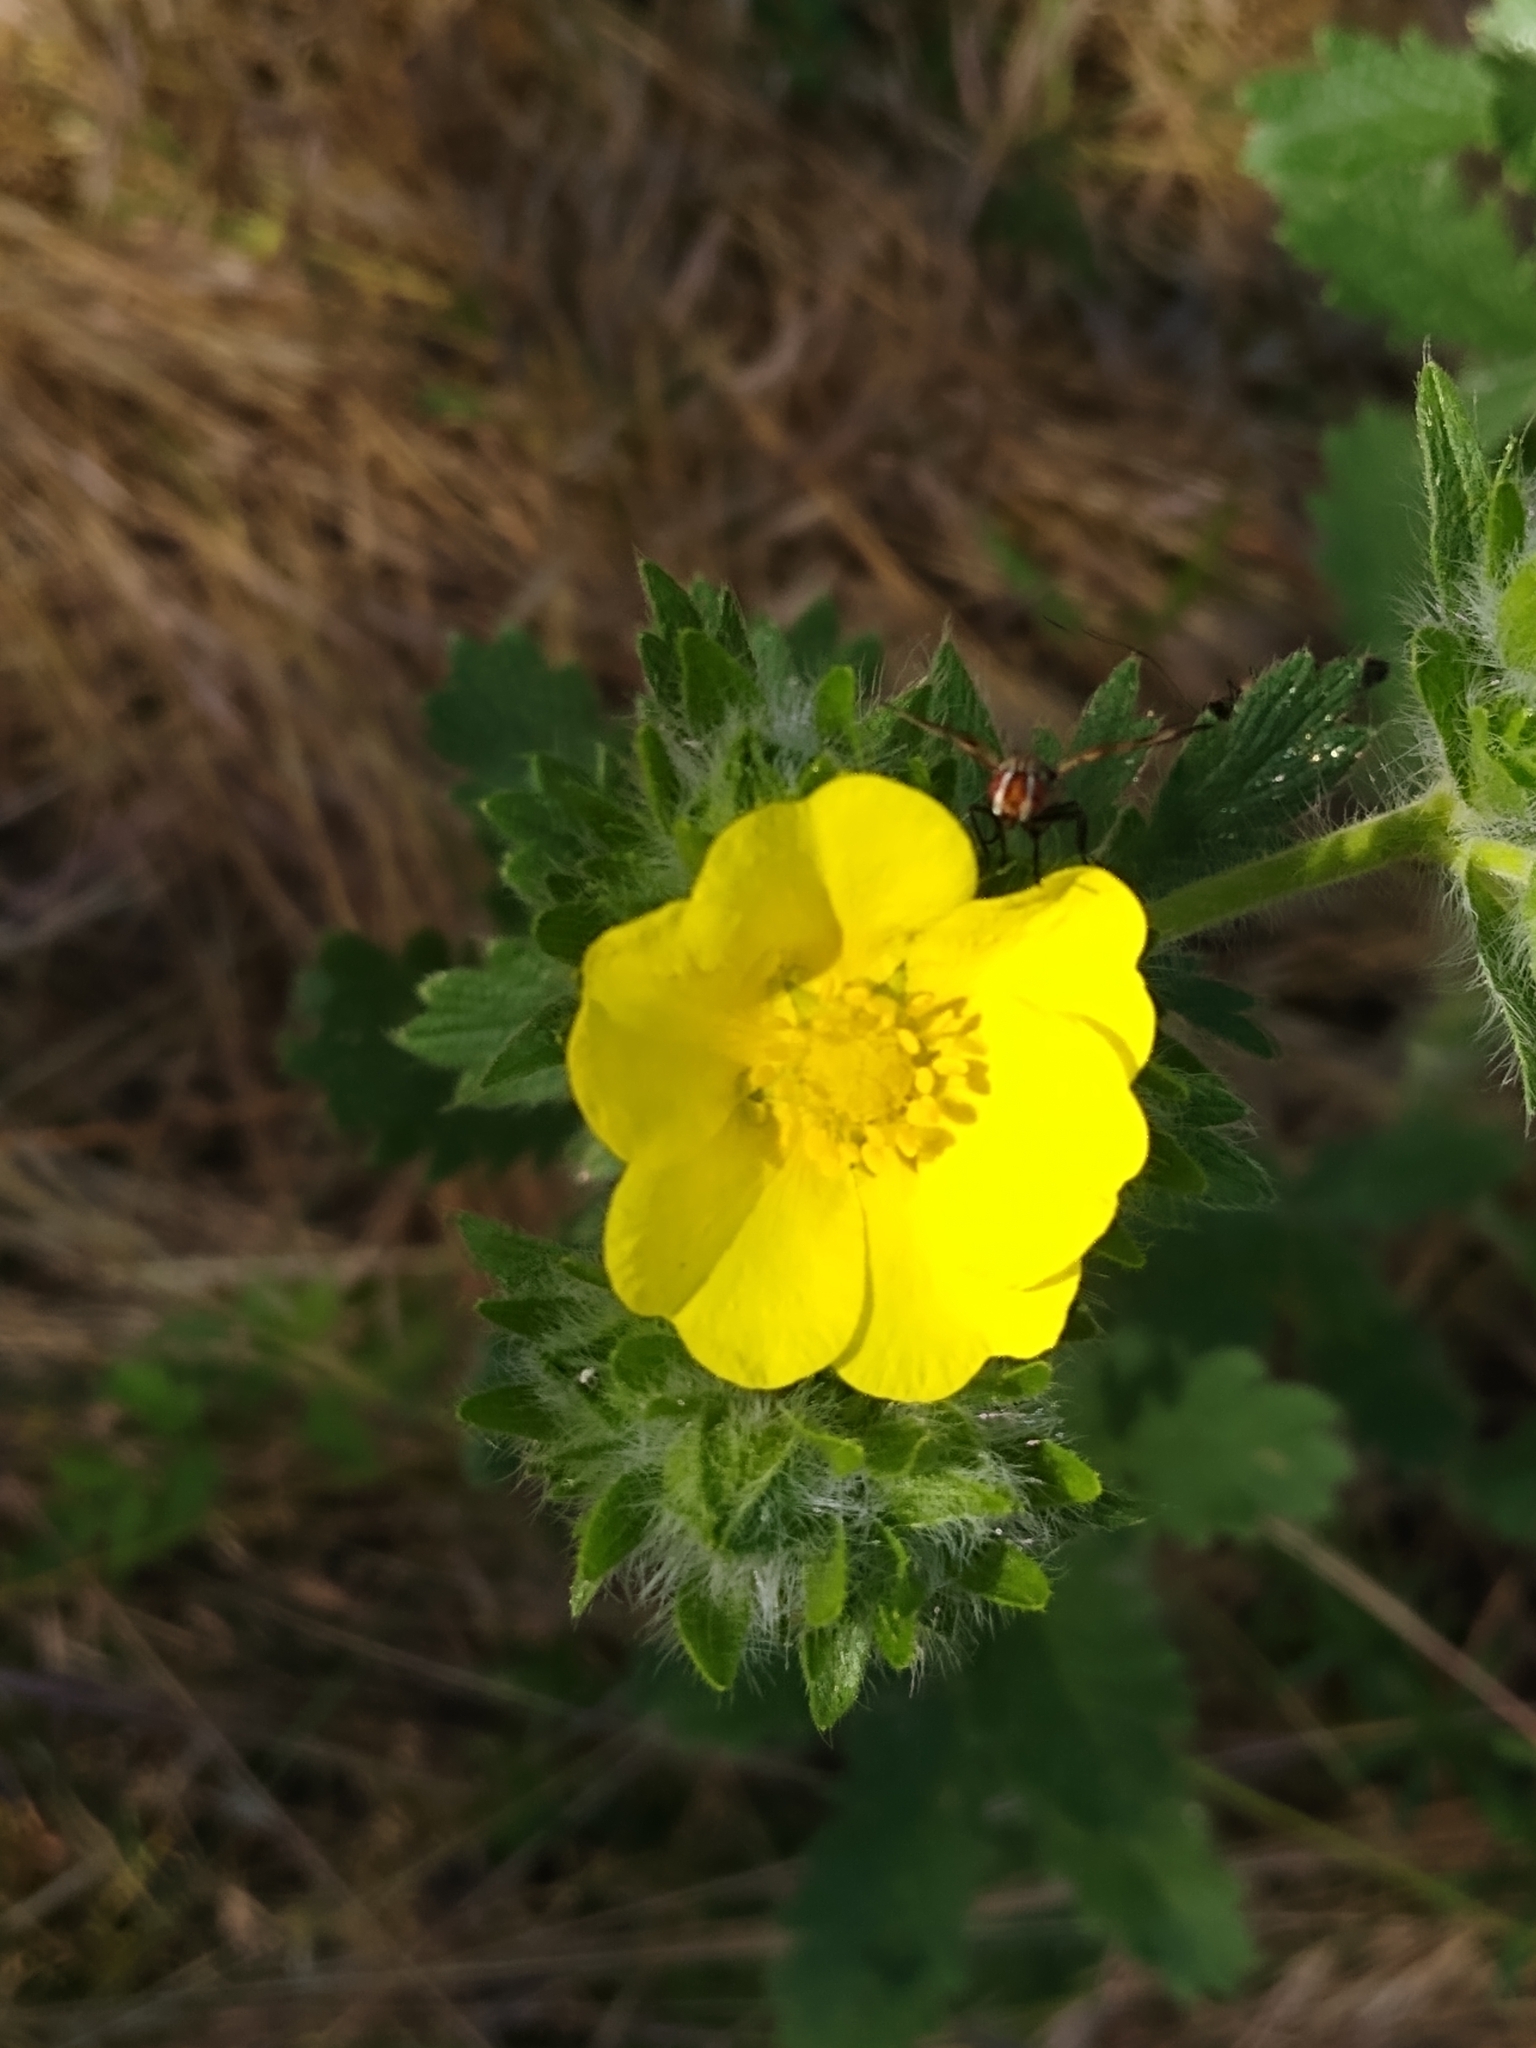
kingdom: Plantae
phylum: Tracheophyta
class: Magnoliopsida
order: Rosales
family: Rosaceae
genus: Potentilla
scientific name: Potentilla recta
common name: Sulphur cinquefoil
